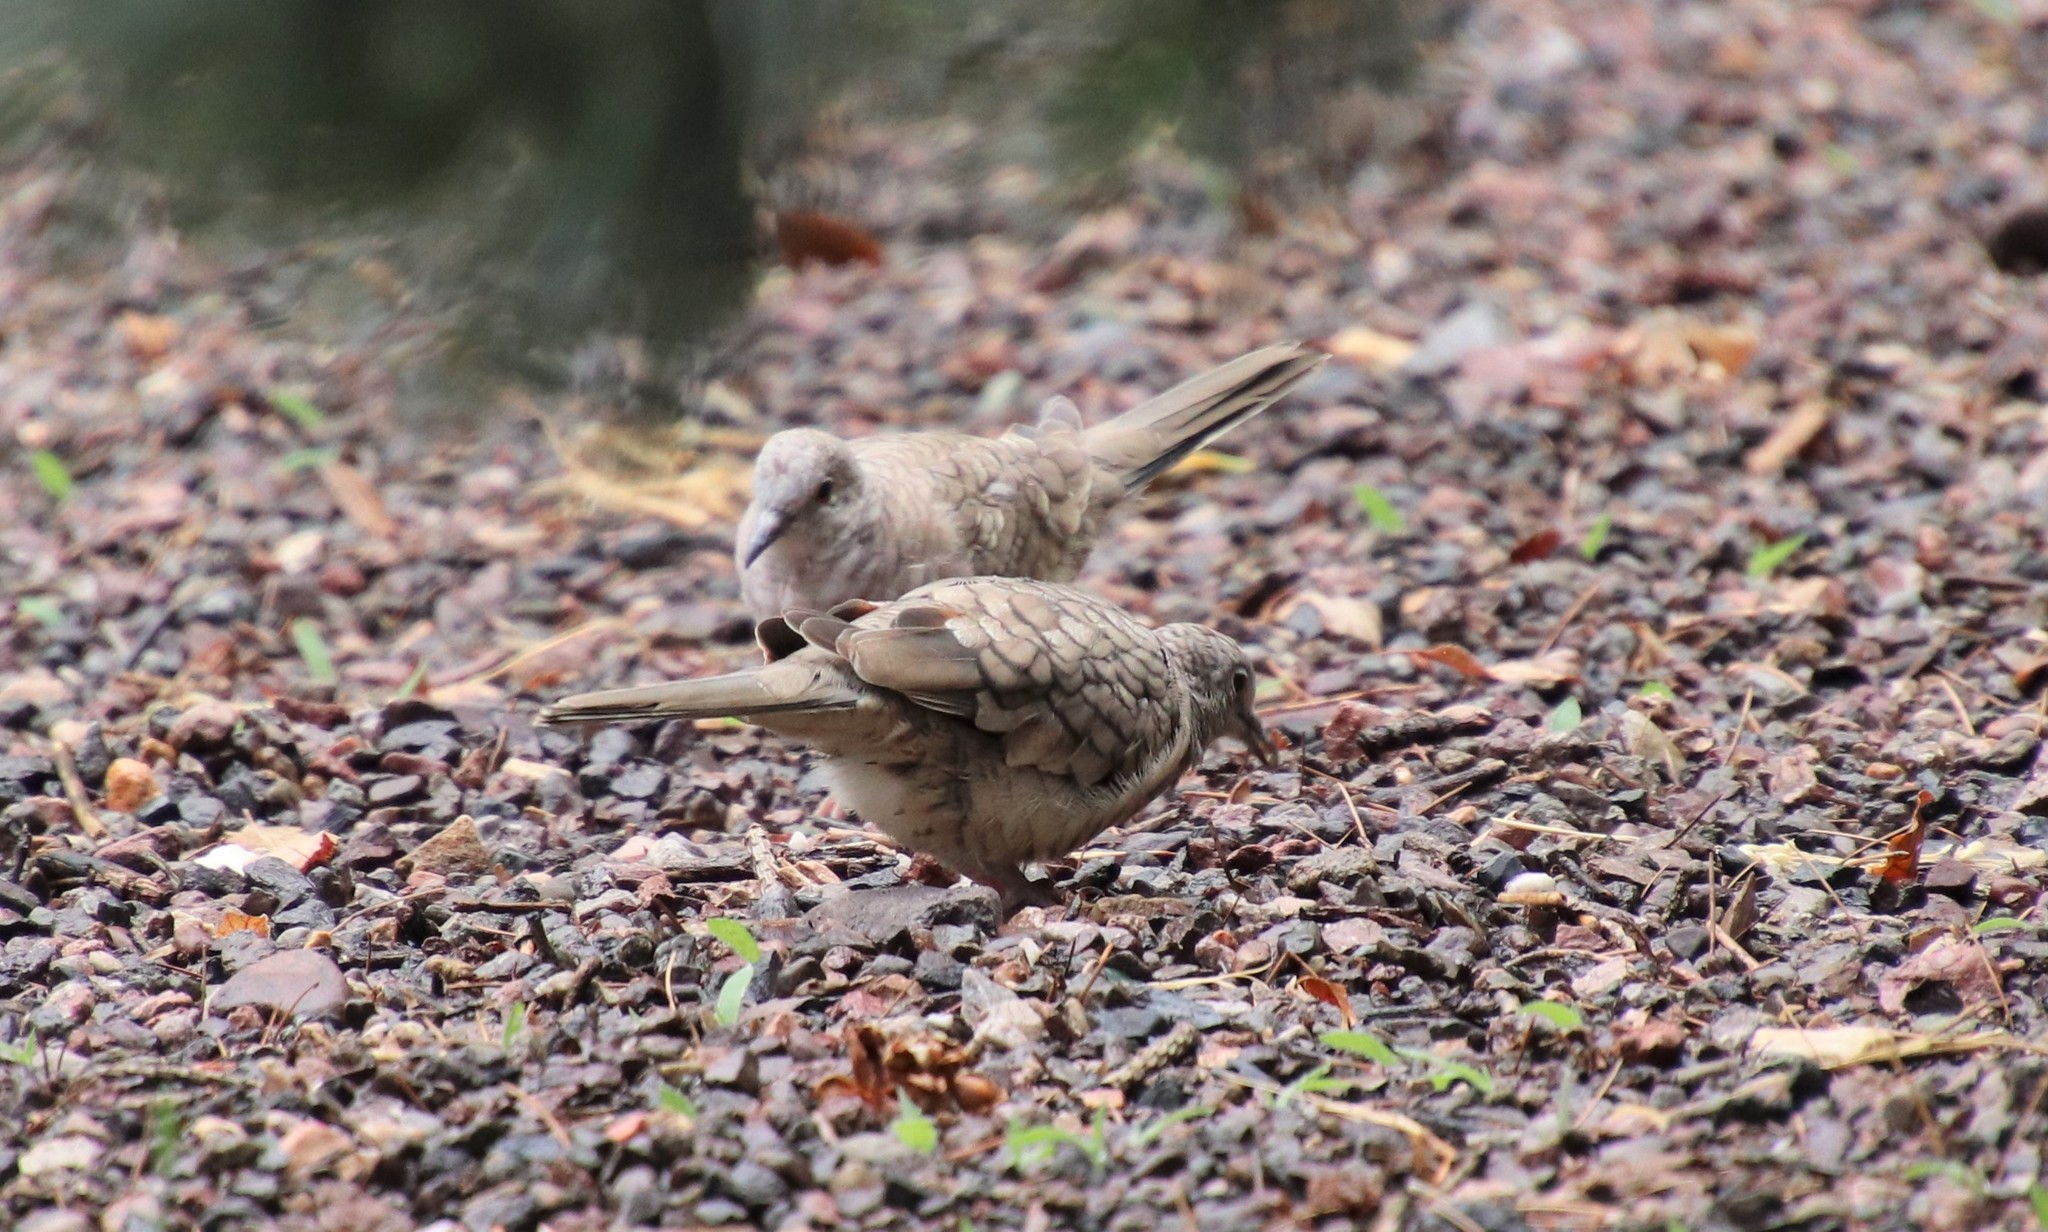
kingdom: Animalia
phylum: Chordata
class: Aves
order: Columbiformes
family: Columbidae
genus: Columbina
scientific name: Columbina inca
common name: Inca dove
